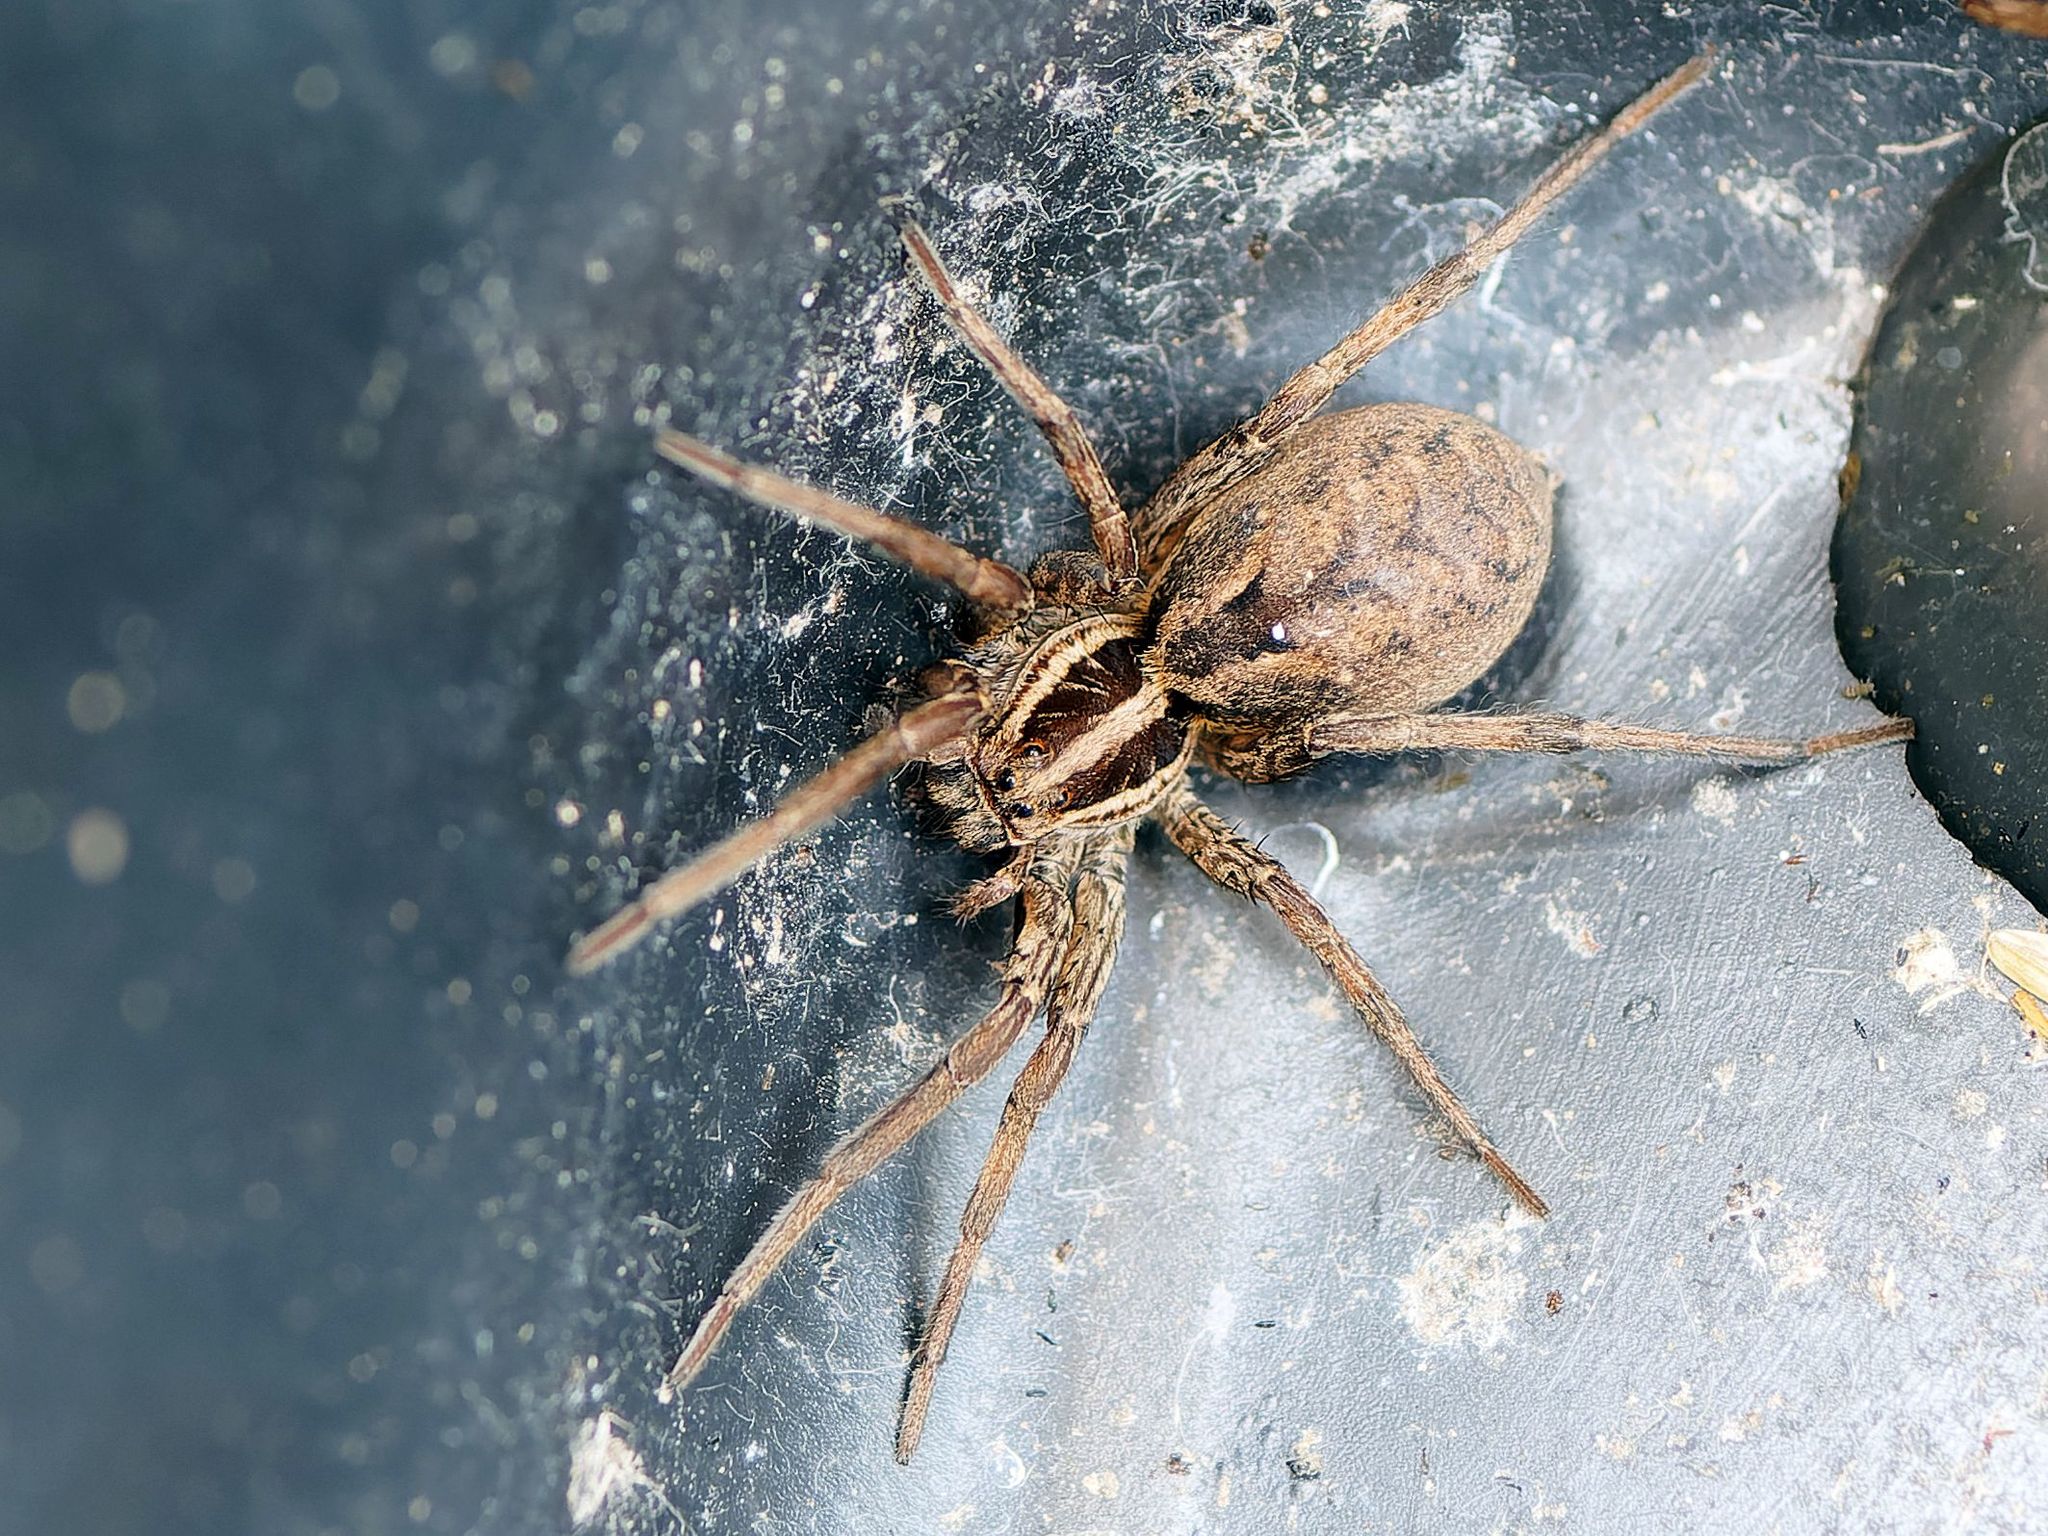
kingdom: Animalia
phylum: Arthropoda
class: Arachnida
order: Araneae
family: Lycosidae
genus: Hogna
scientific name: Hogna radiata
